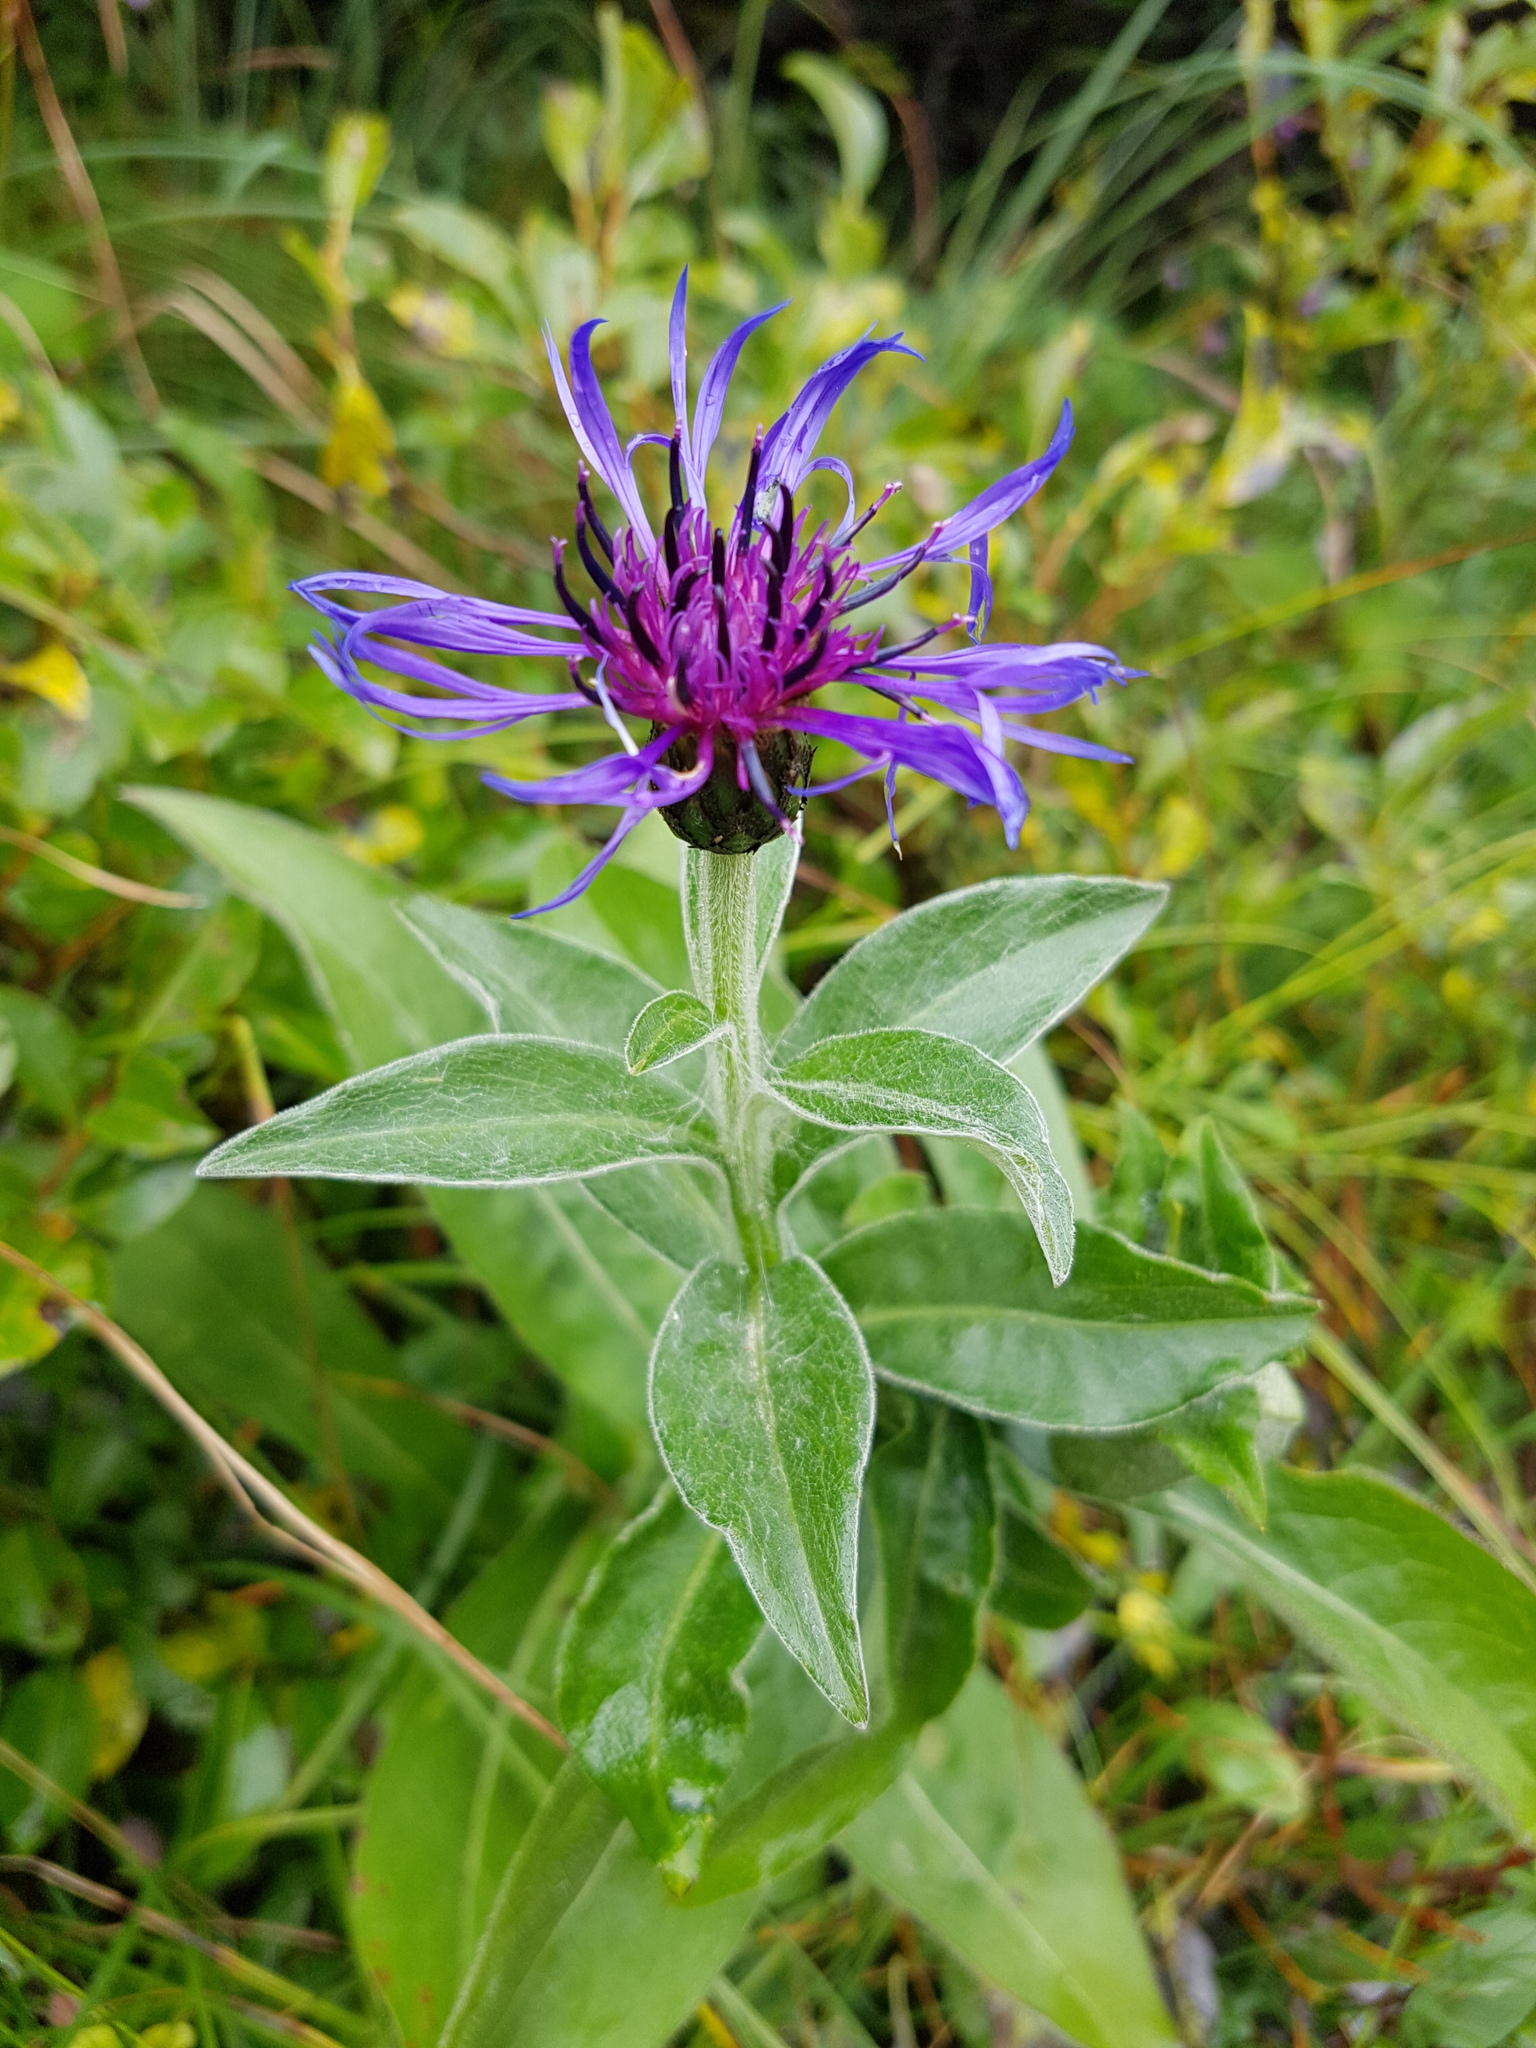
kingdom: Plantae
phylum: Tracheophyta
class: Magnoliopsida
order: Asterales
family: Asteraceae
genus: Centaurea
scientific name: Centaurea montana
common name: Perennial cornflower
